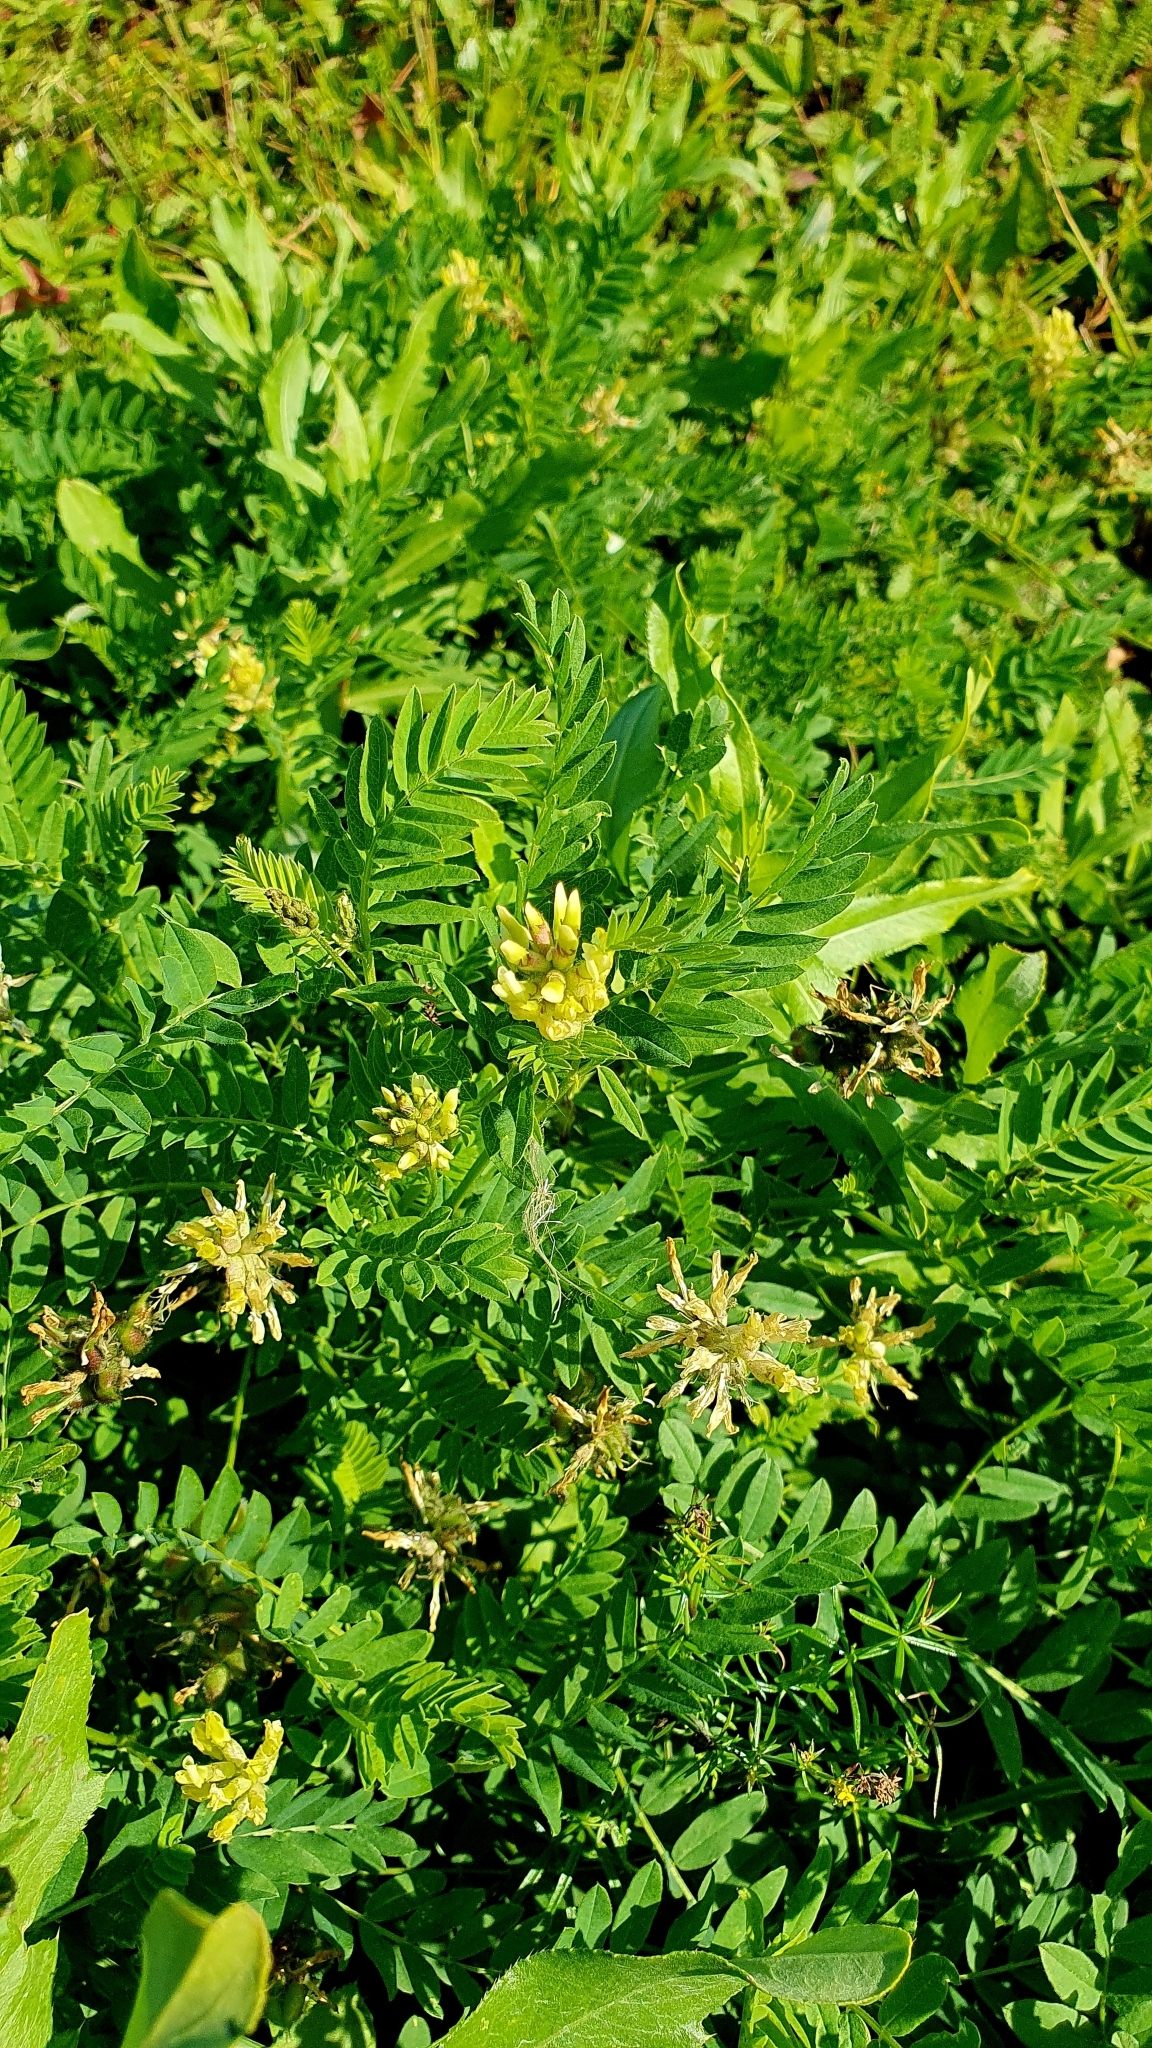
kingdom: Plantae
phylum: Tracheophyta
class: Magnoliopsida
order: Fabales
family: Fabaceae
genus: Astragalus
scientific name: Astragalus cicer
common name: Chick-pea milk-vetch
